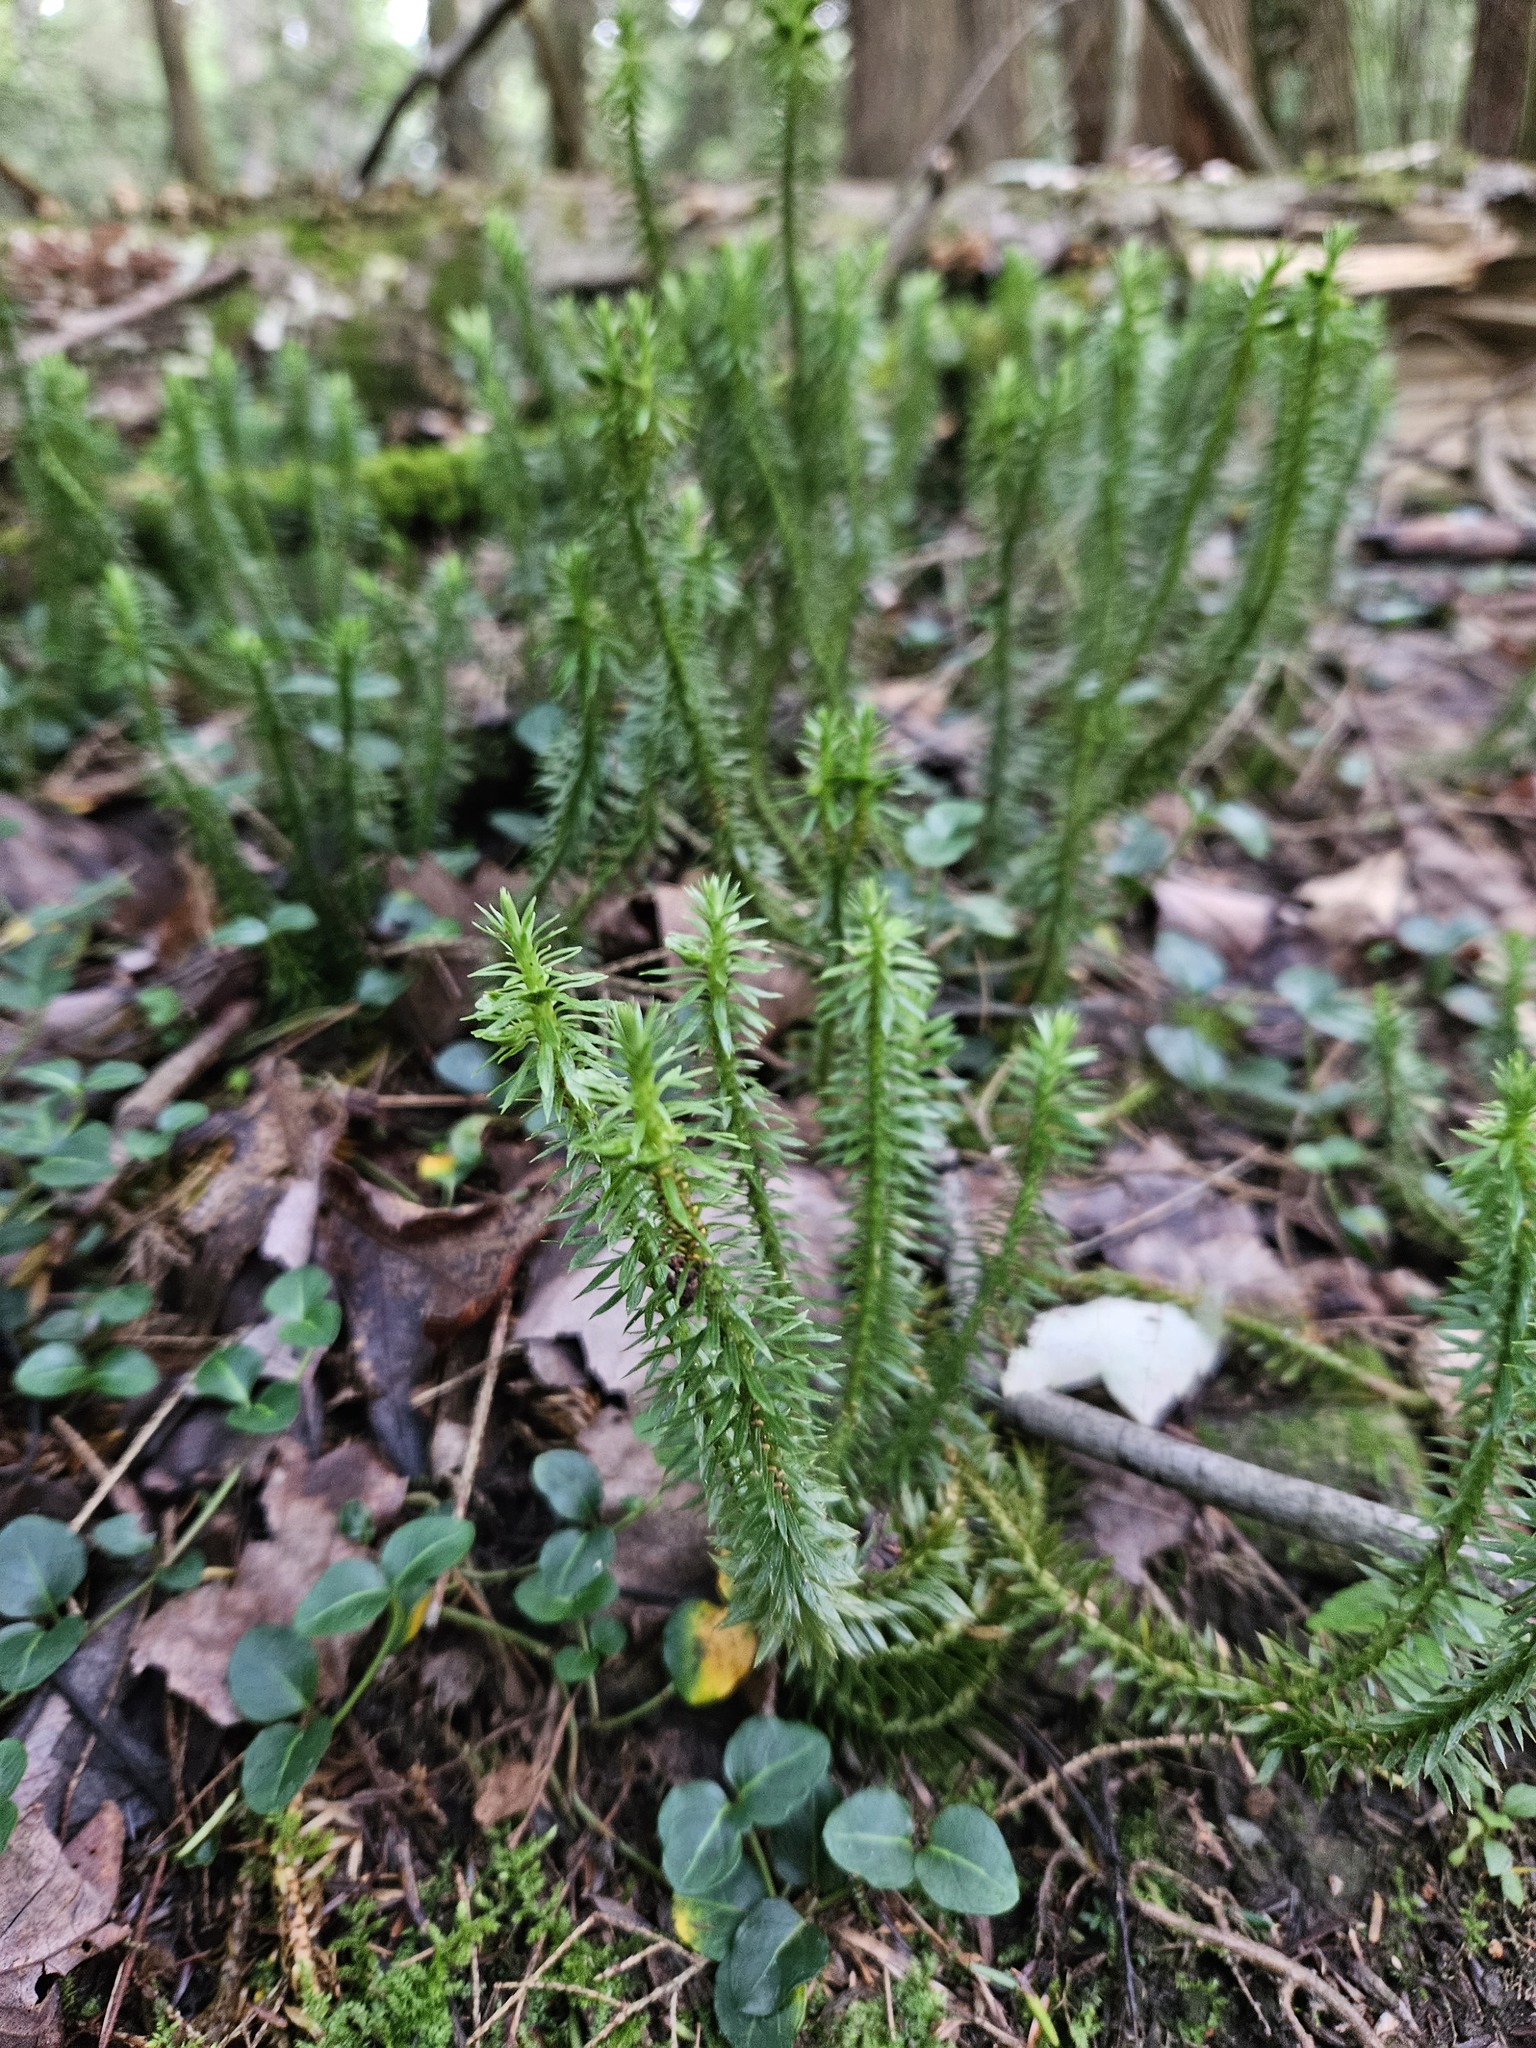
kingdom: Plantae
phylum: Tracheophyta
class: Lycopodiopsida
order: Lycopodiales
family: Lycopodiaceae
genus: Huperzia
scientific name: Huperzia lucidula
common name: Shining clubmoss
